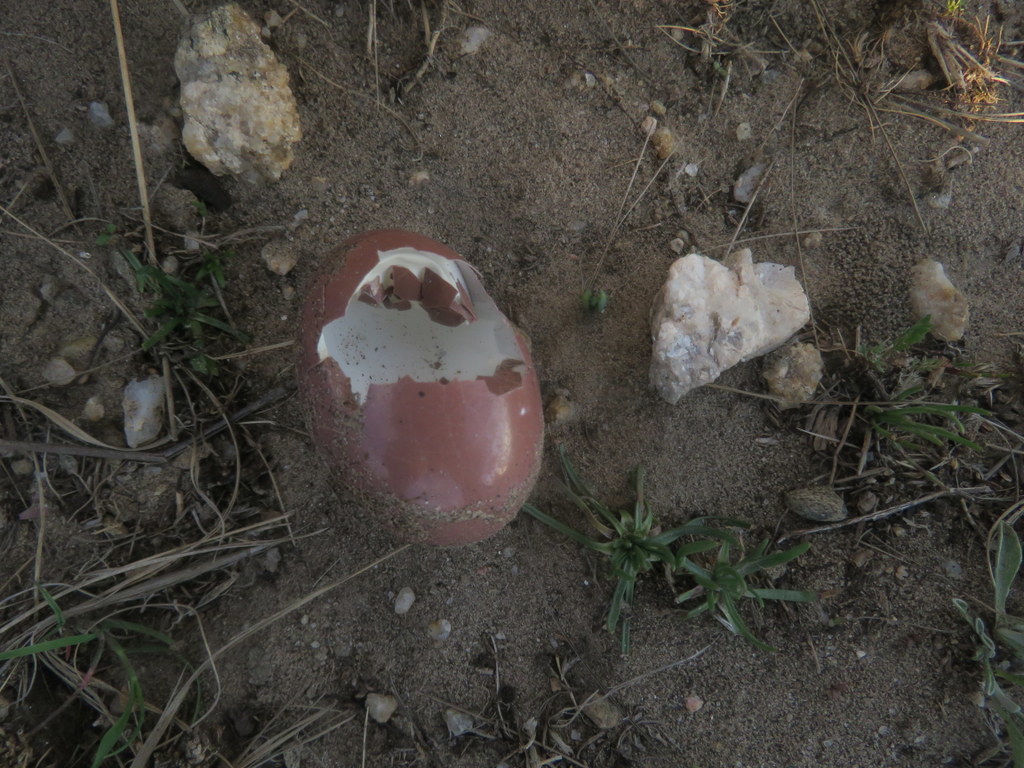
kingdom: Animalia
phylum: Chordata
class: Aves
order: Tinamiformes
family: Tinamidae
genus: Nothura
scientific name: Nothura maculosa
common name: Spotted nothura
